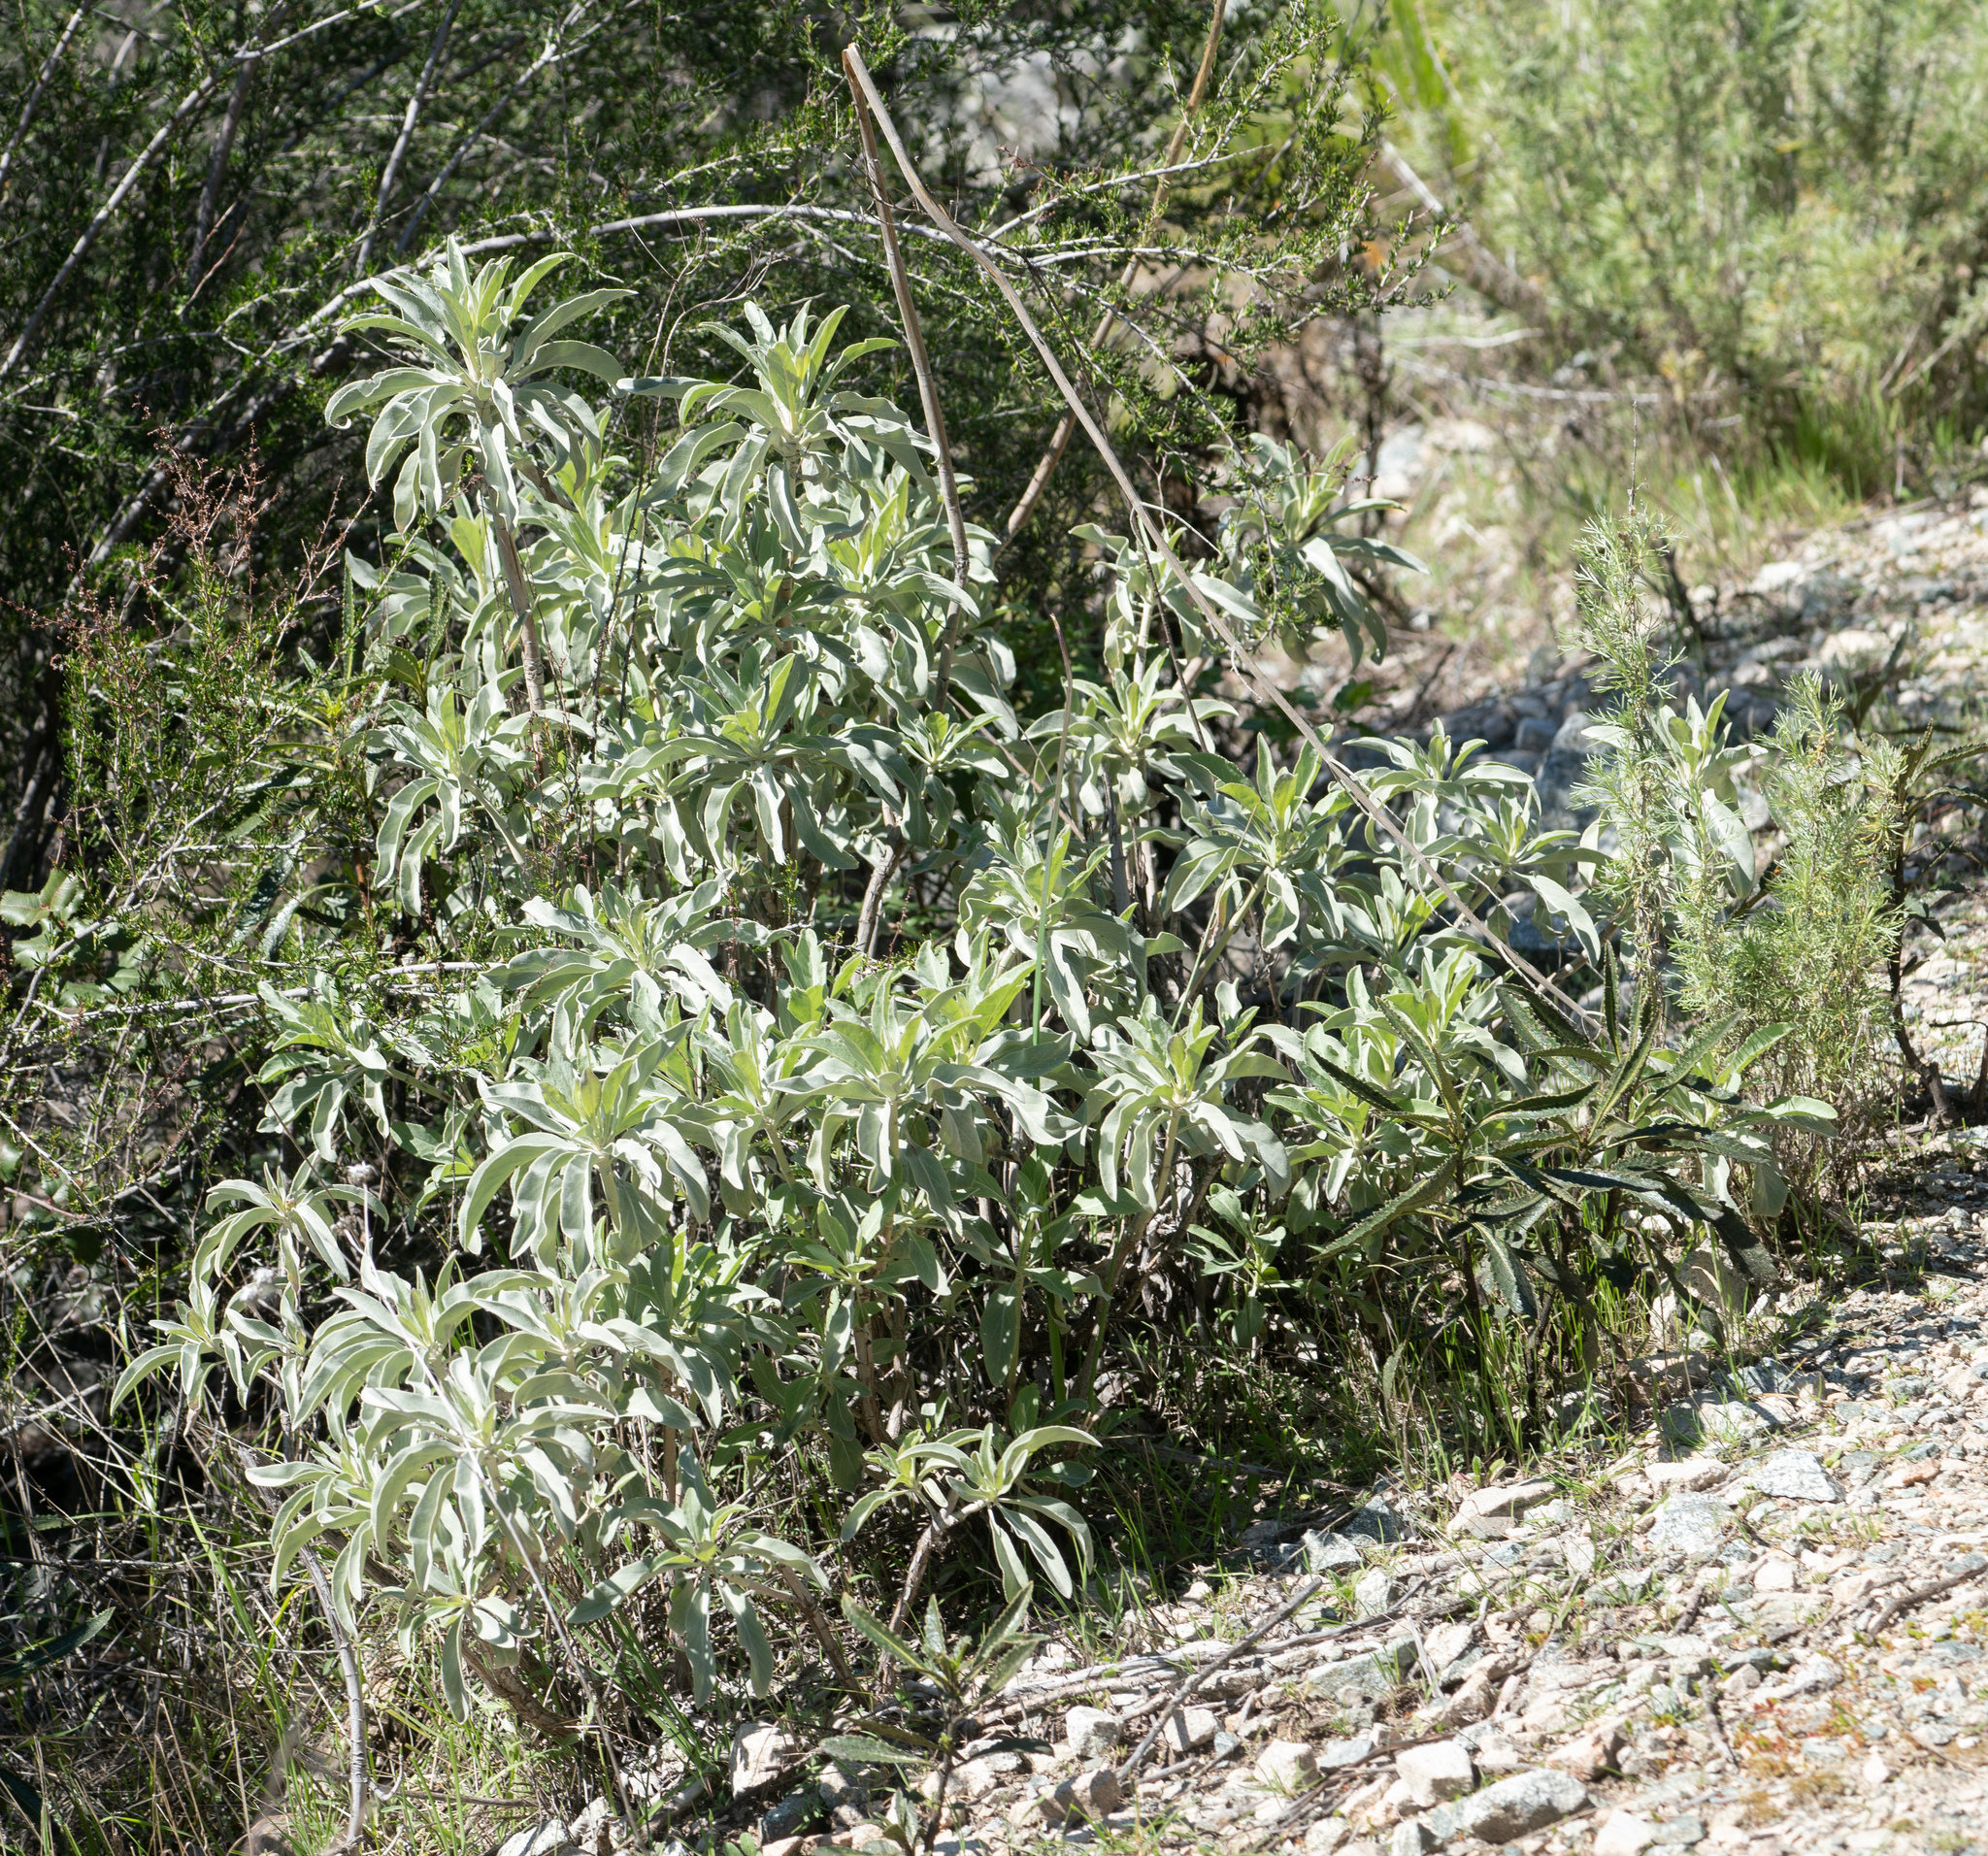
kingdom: Plantae
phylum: Tracheophyta
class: Magnoliopsida
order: Lamiales
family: Lamiaceae
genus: Salvia
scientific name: Salvia apiana
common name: White sage
